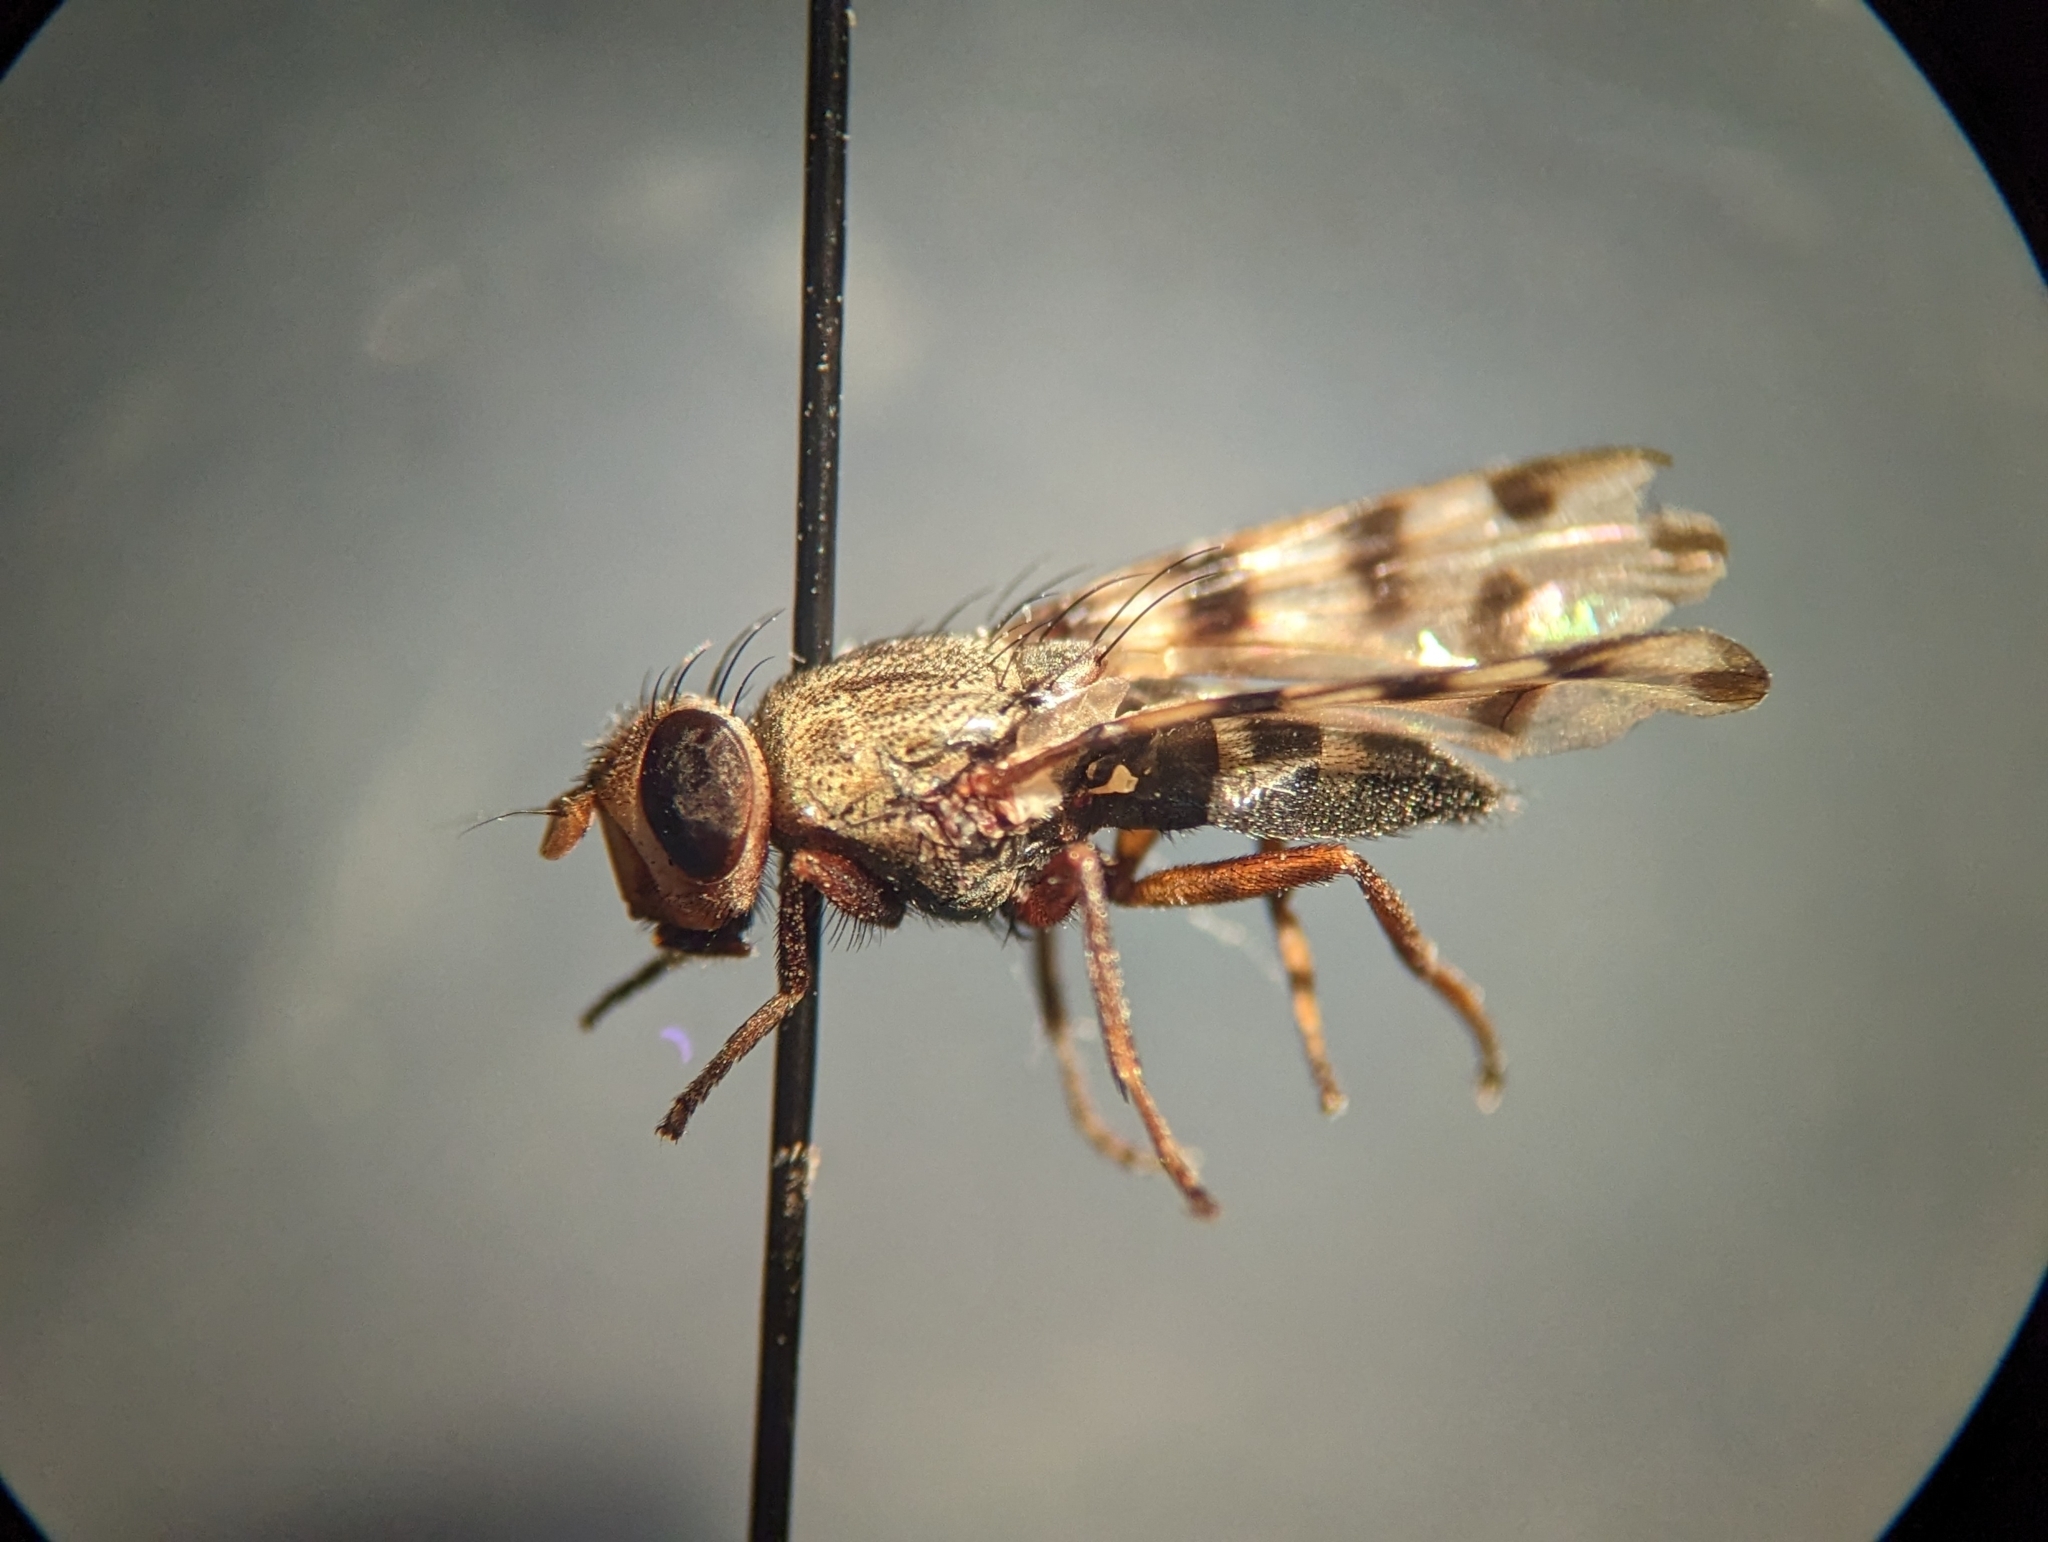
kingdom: Animalia
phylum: Arthropoda
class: Insecta
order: Diptera
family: Ulidiidae
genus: Ceroxys
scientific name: Ceroxys latiusculus
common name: Picture-winged fly
